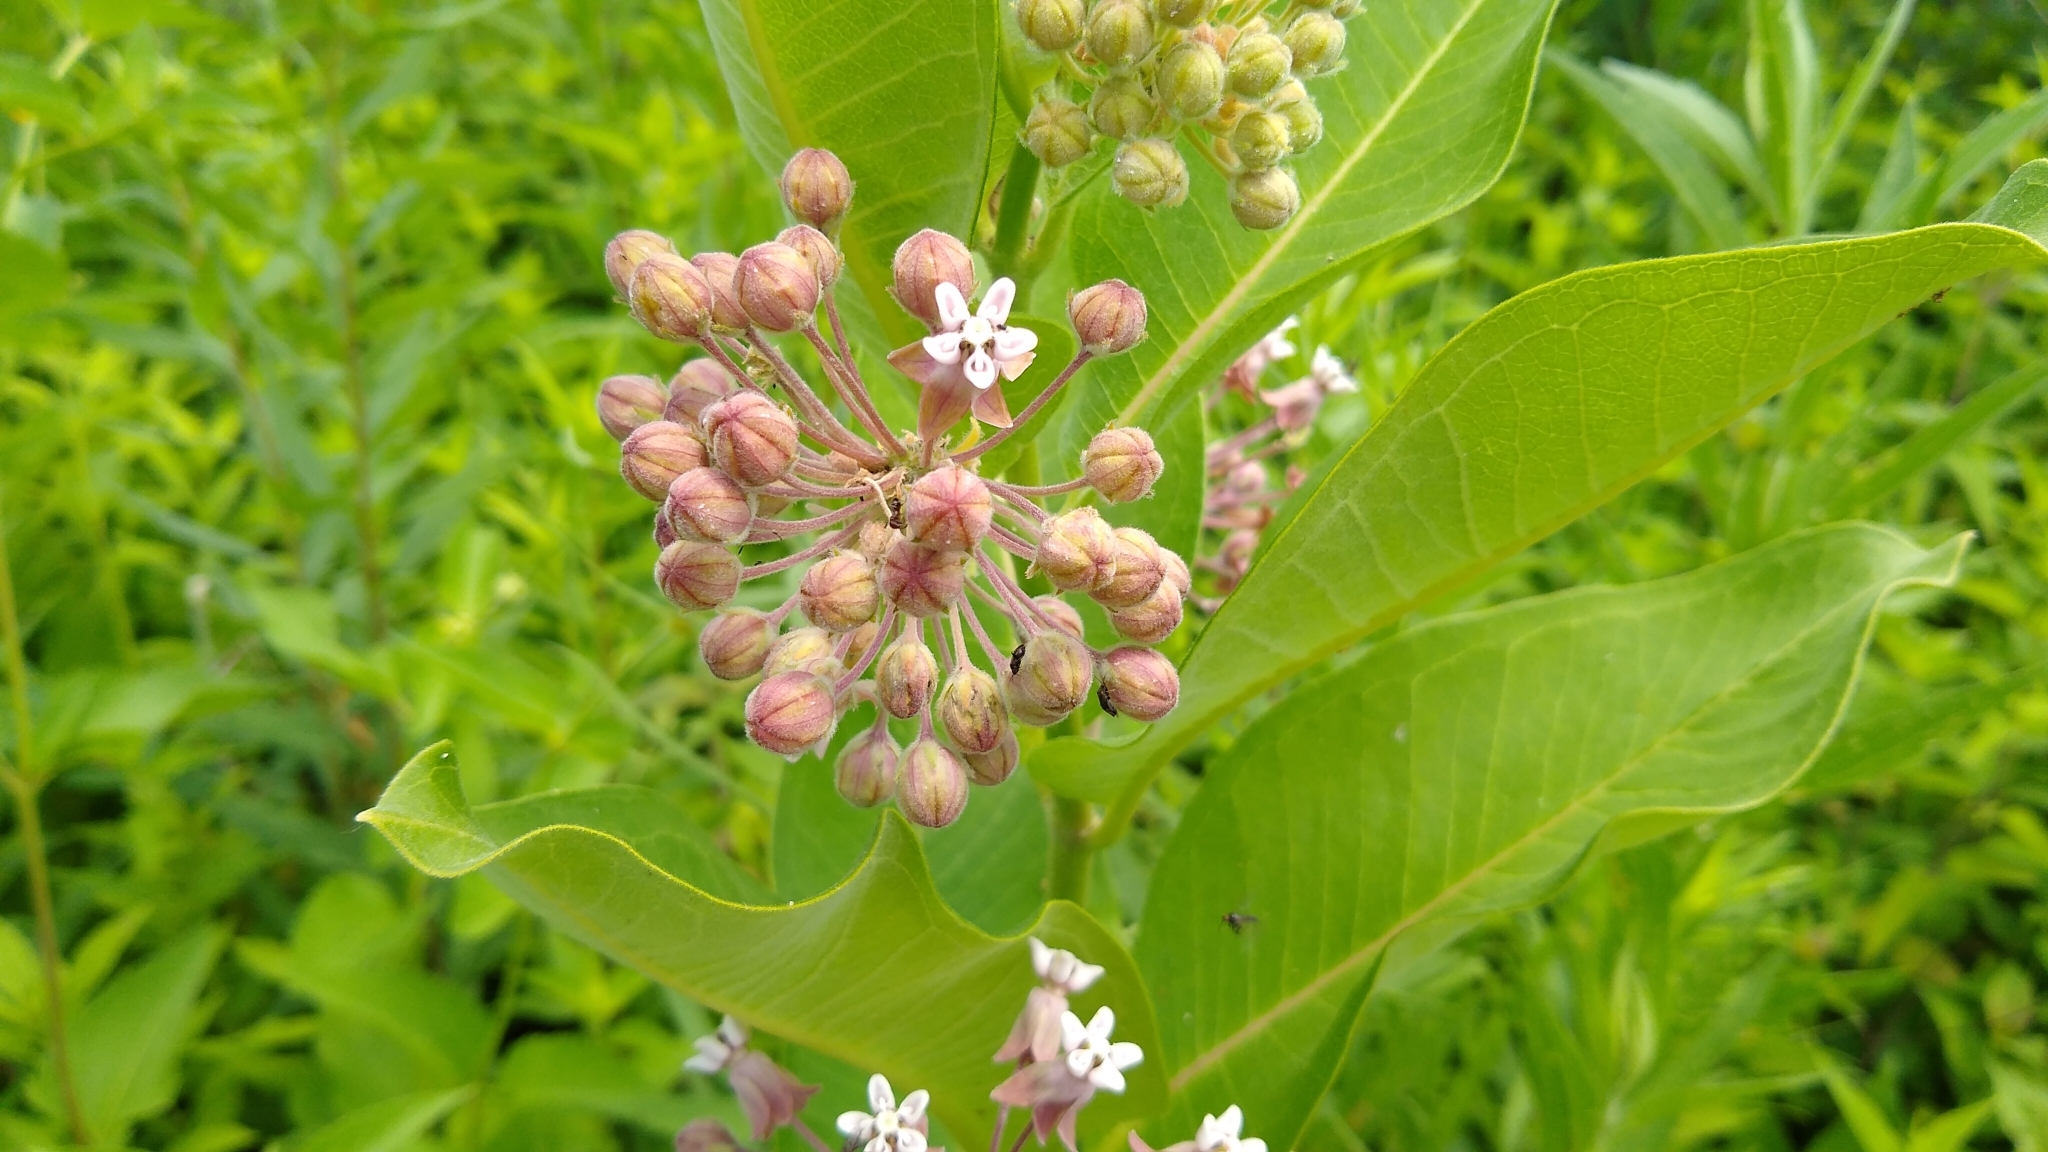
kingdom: Plantae
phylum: Tracheophyta
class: Magnoliopsida
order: Gentianales
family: Apocynaceae
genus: Asclepias
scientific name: Asclepias syriaca
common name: Common milkweed
